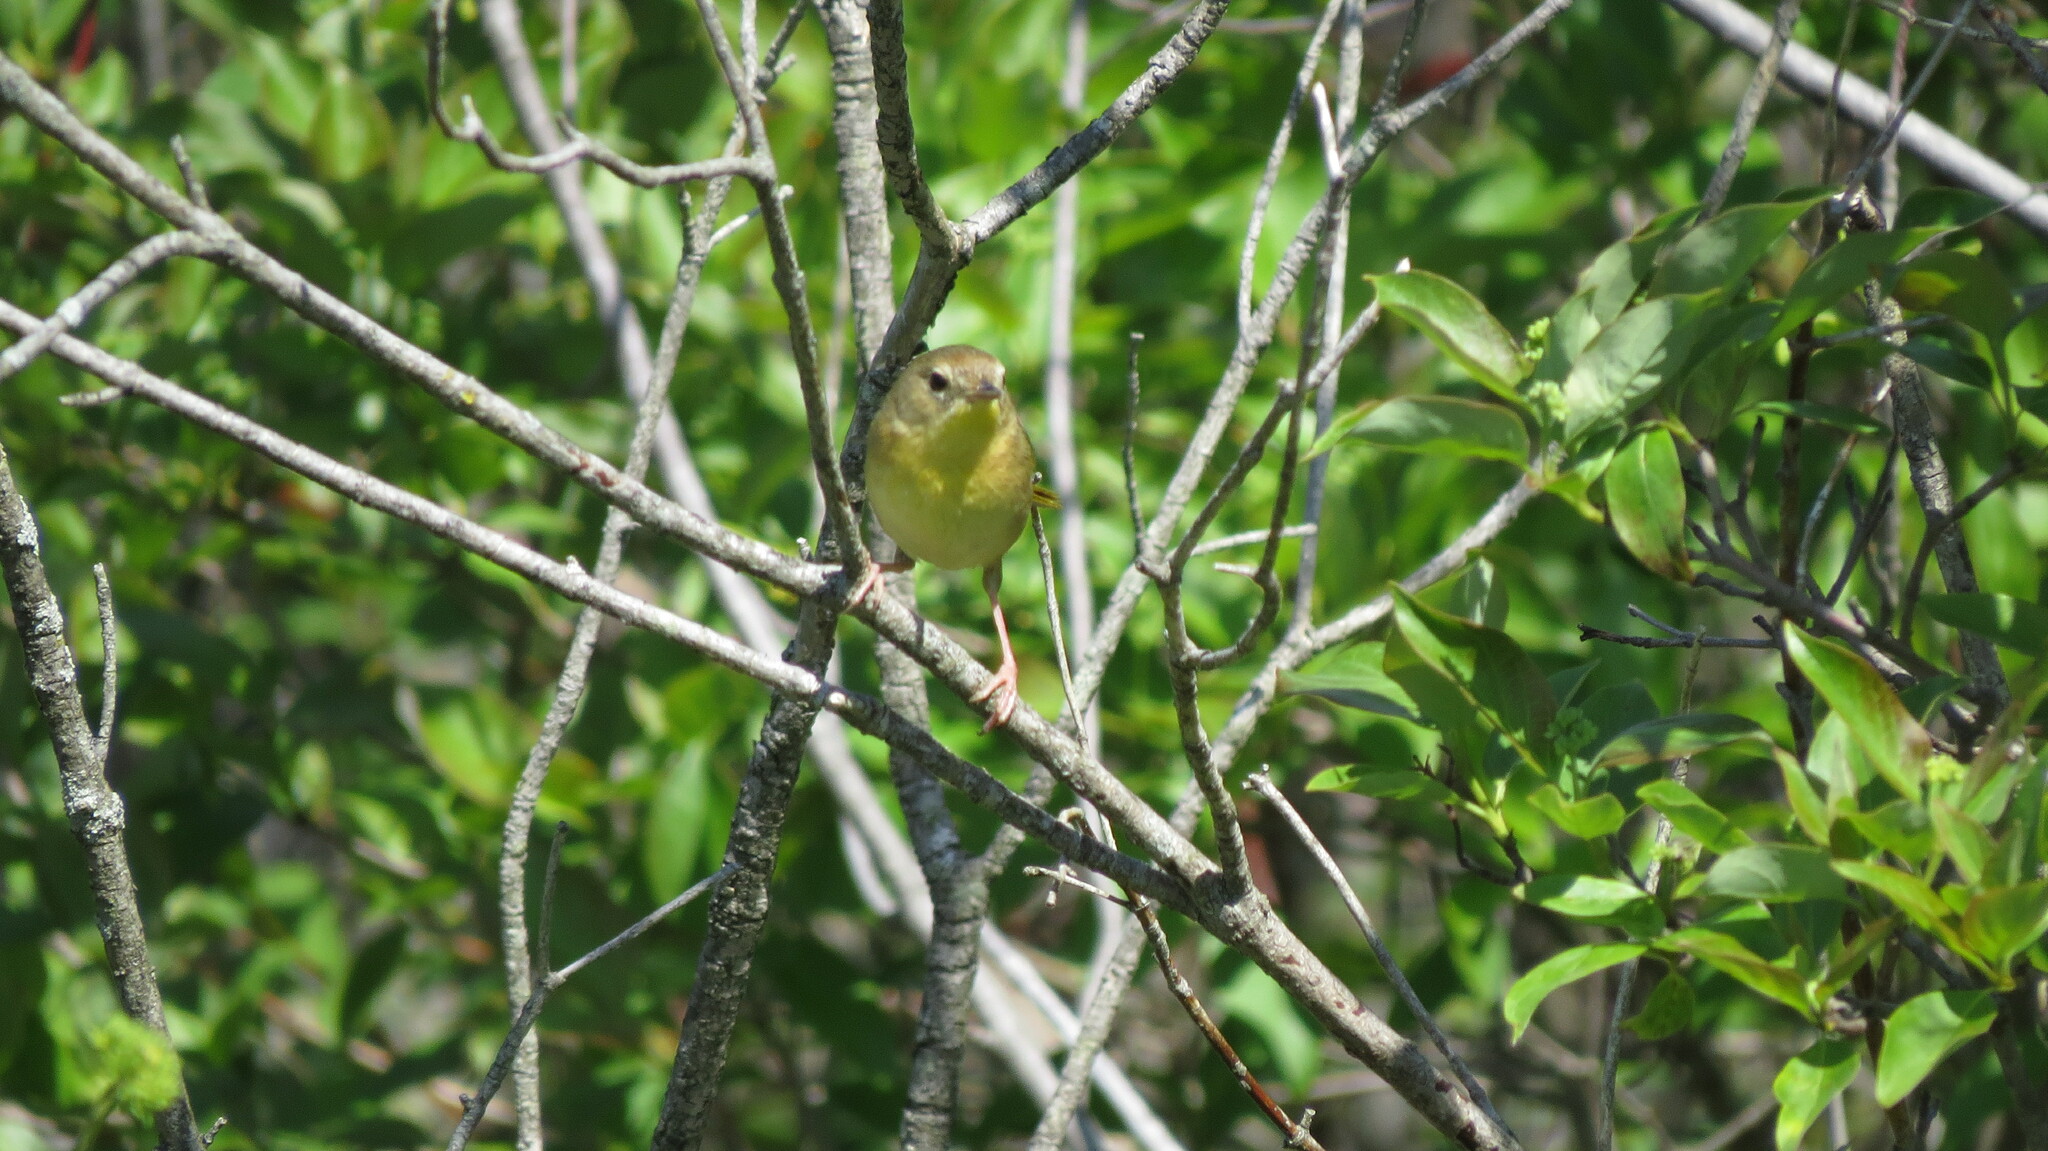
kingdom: Animalia
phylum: Chordata
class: Aves
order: Passeriformes
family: Parulidae
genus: Geothlypis
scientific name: Geothlypis trichas
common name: Common yellowthroat
